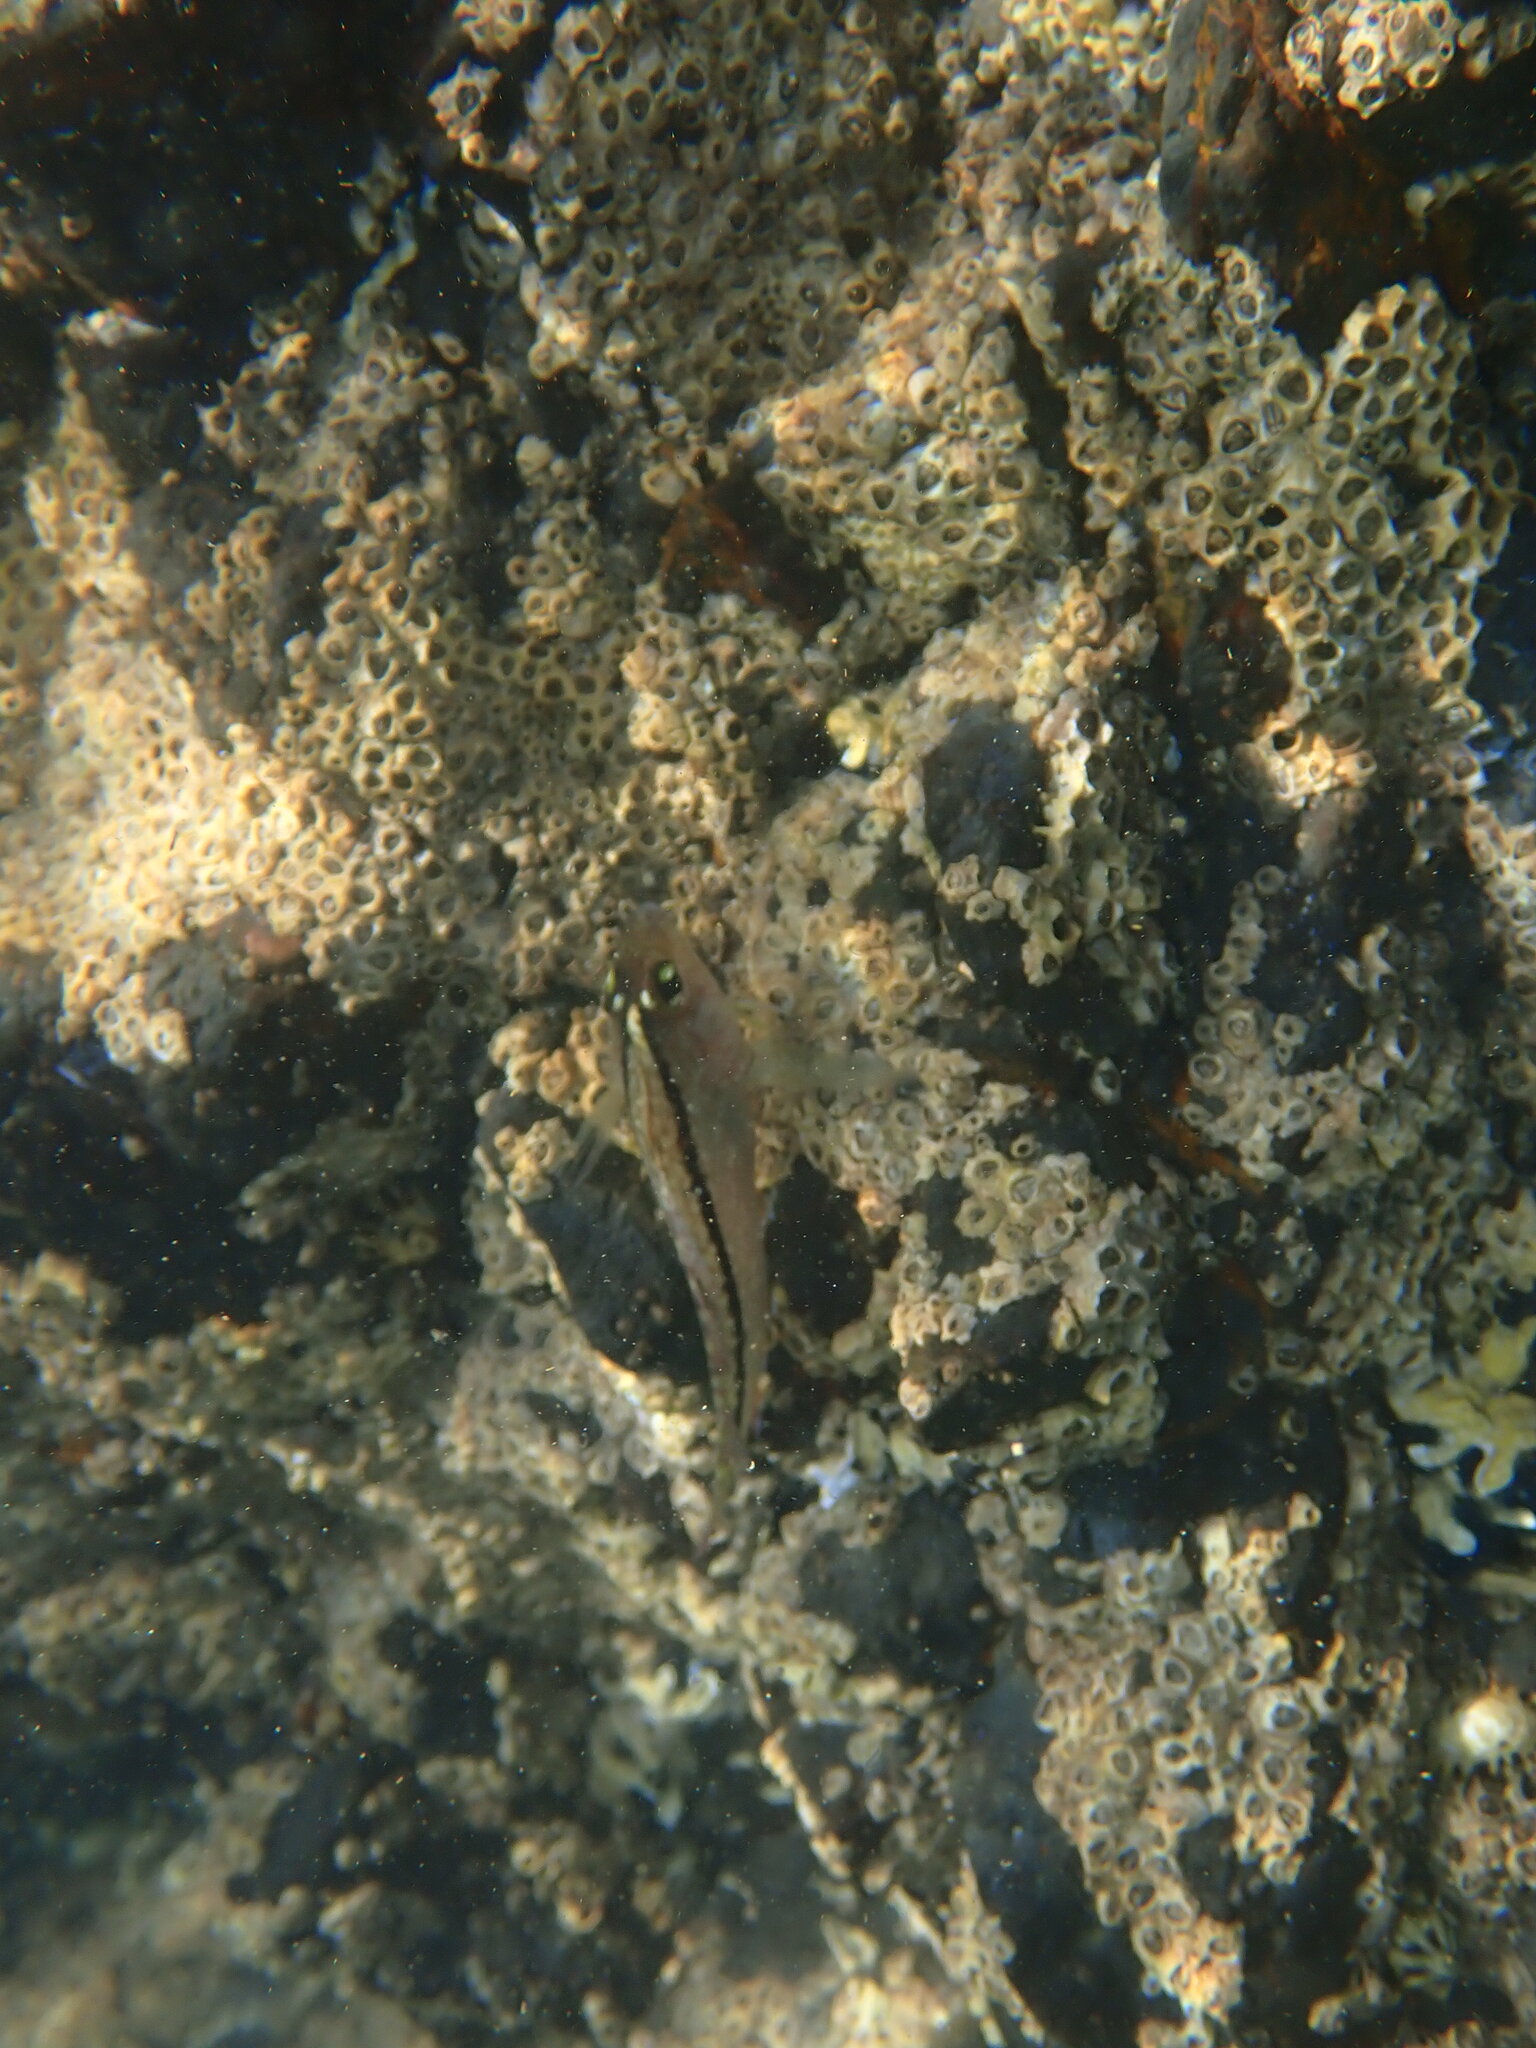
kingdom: Animalia
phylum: Chordata
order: Perciformes
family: Tripterygiidae
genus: Forsterygion
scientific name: Forsterygion lapillum
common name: Common triplefin
